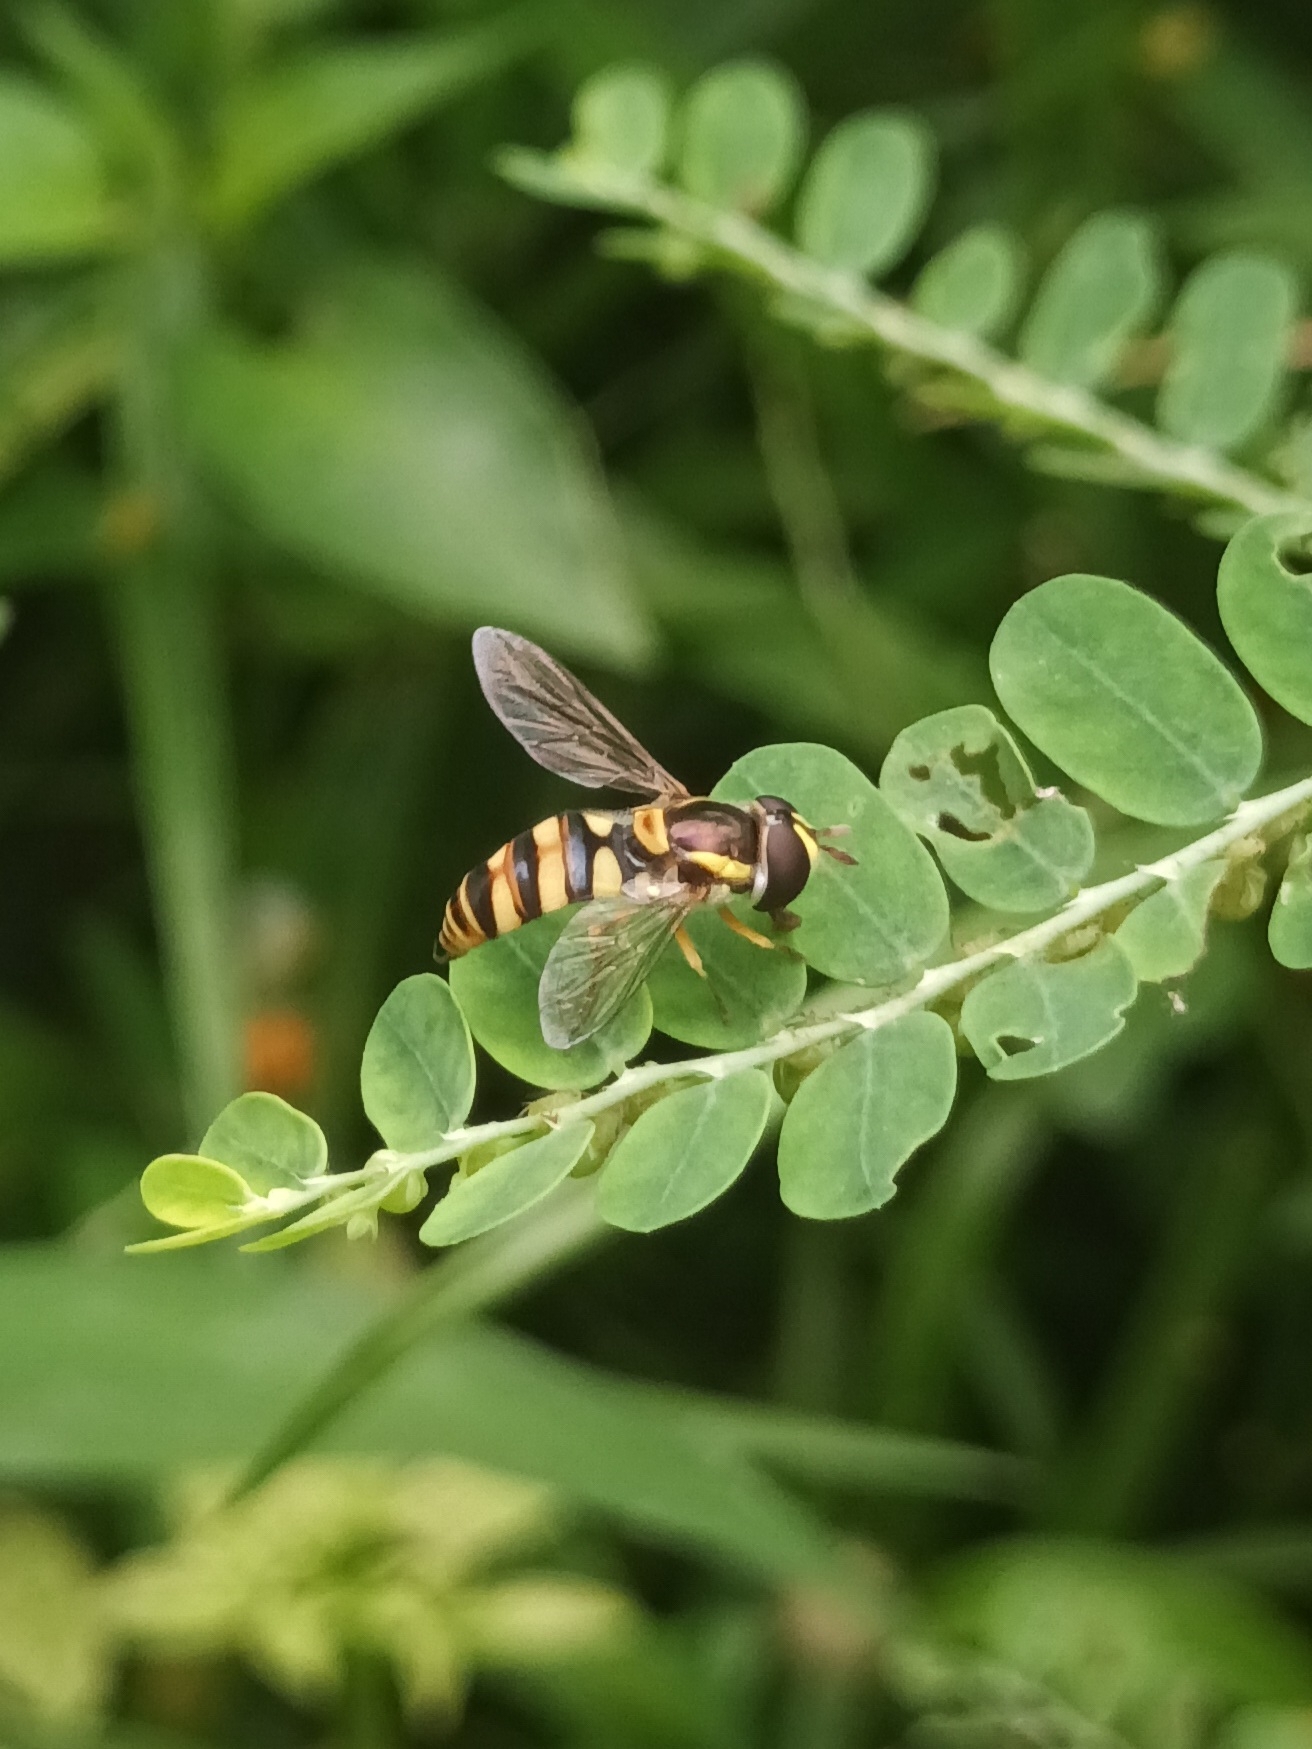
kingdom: Animalia
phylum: Arthropoda
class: Insecta
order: Diptera
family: Syrphidae
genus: Ischiodon
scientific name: Ischiodon scutellaris
